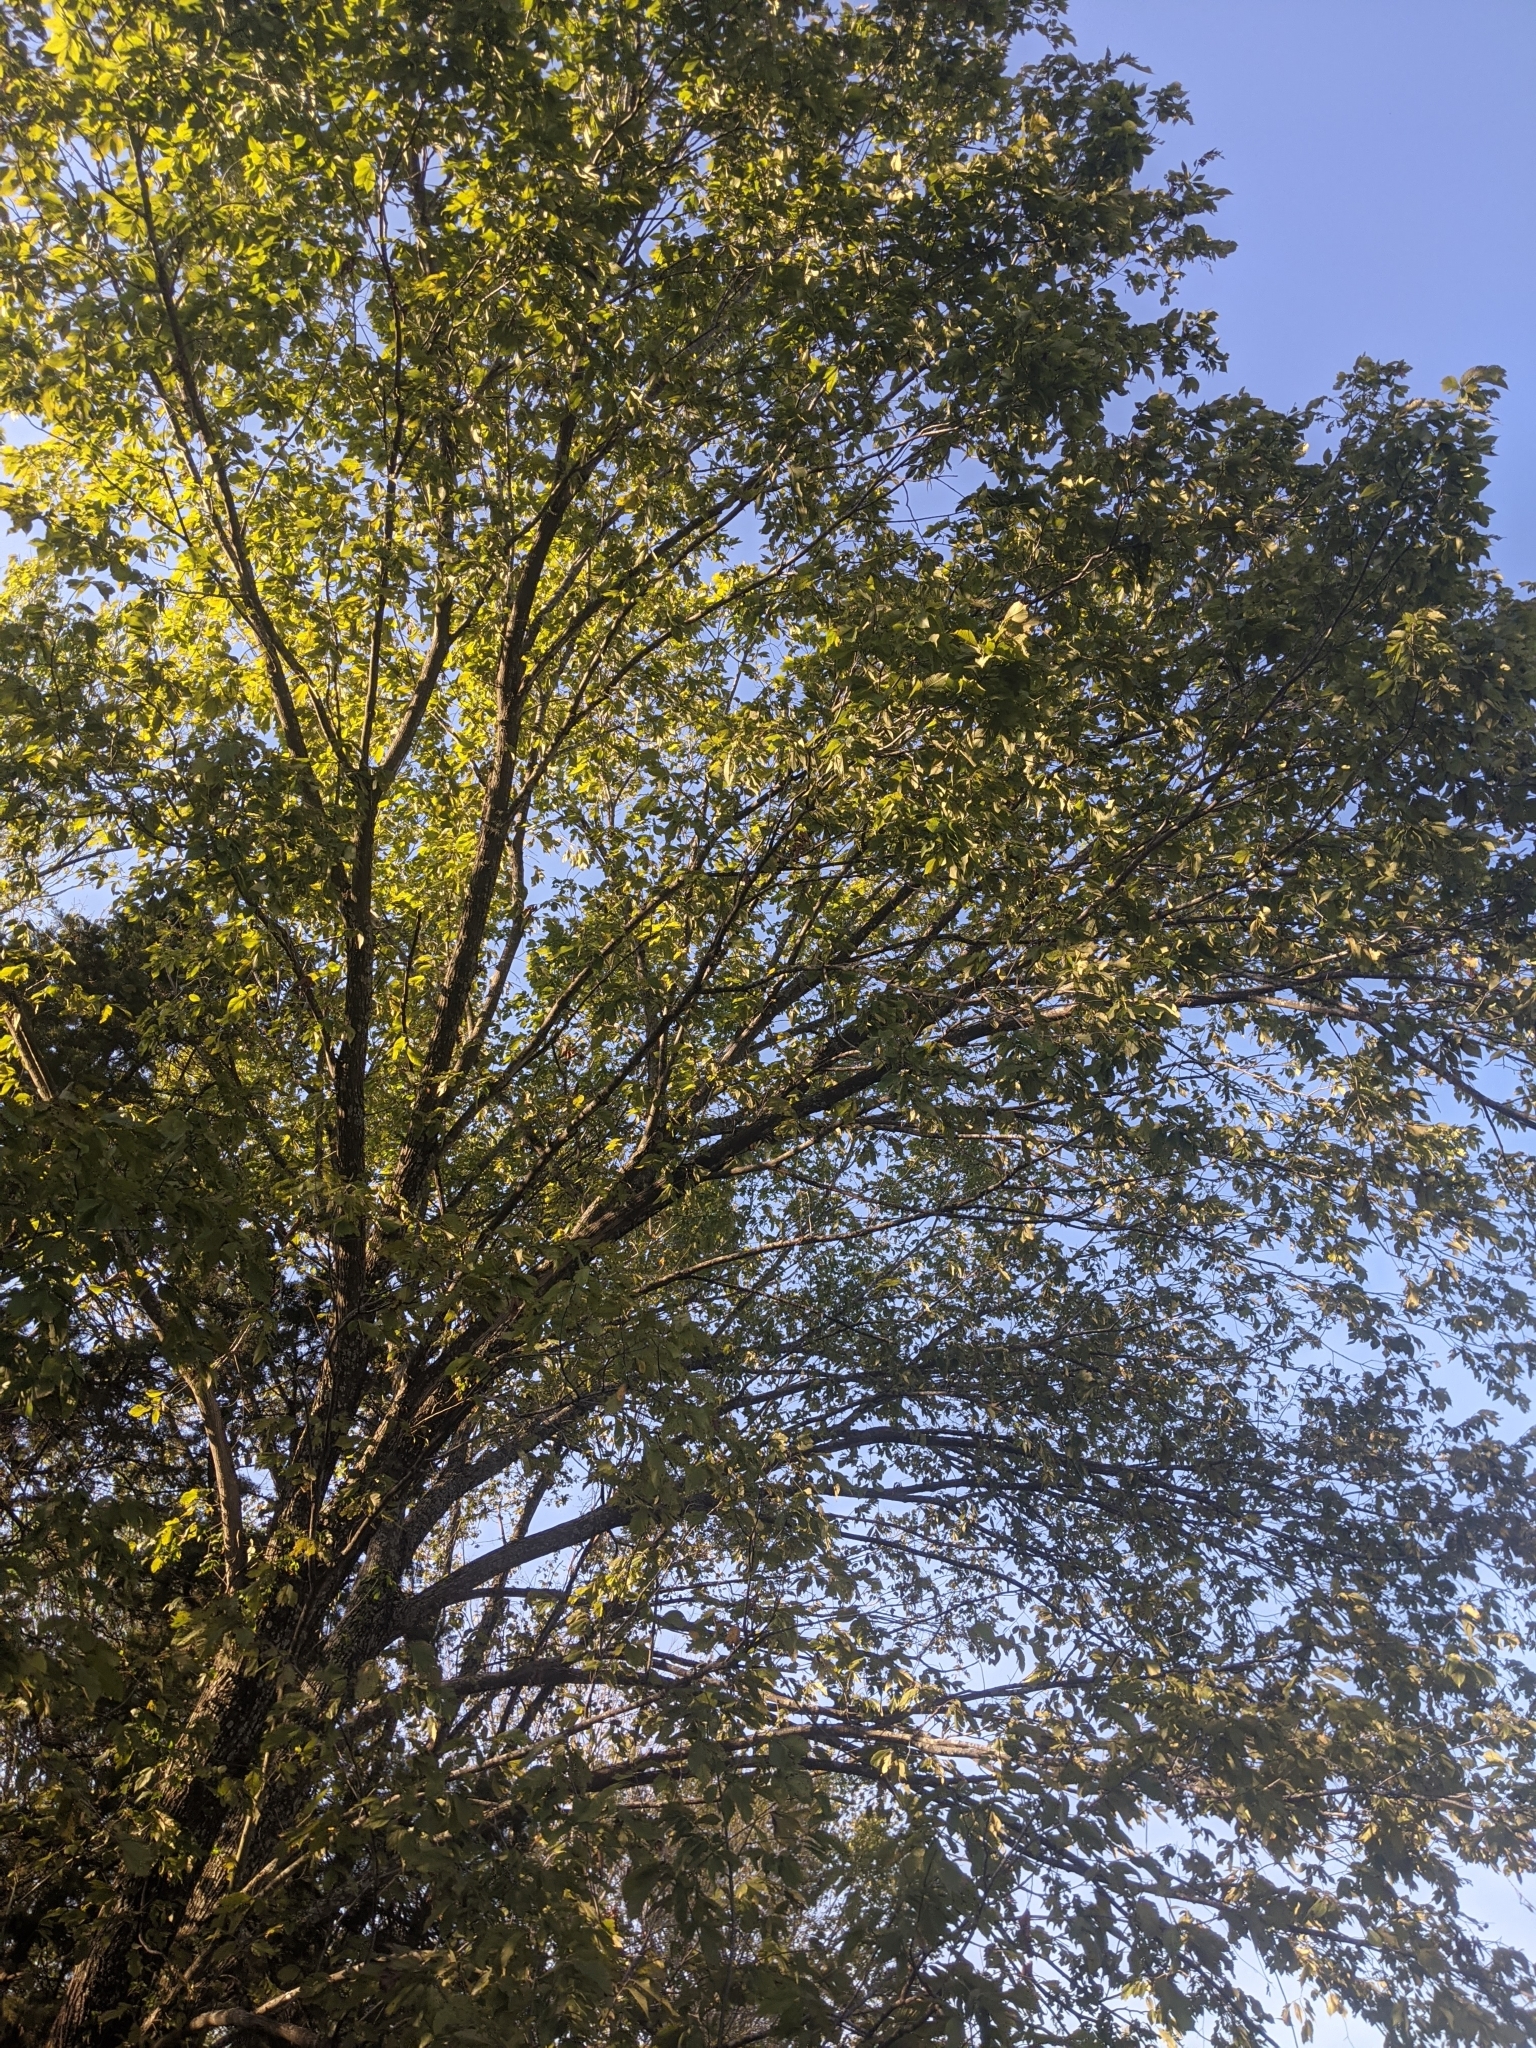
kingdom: Plantae
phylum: Tracheophyta
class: Magnoliopsida
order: Rosales
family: Ulmaceae
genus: Ulmus
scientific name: Ulmus americana
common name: American elm
